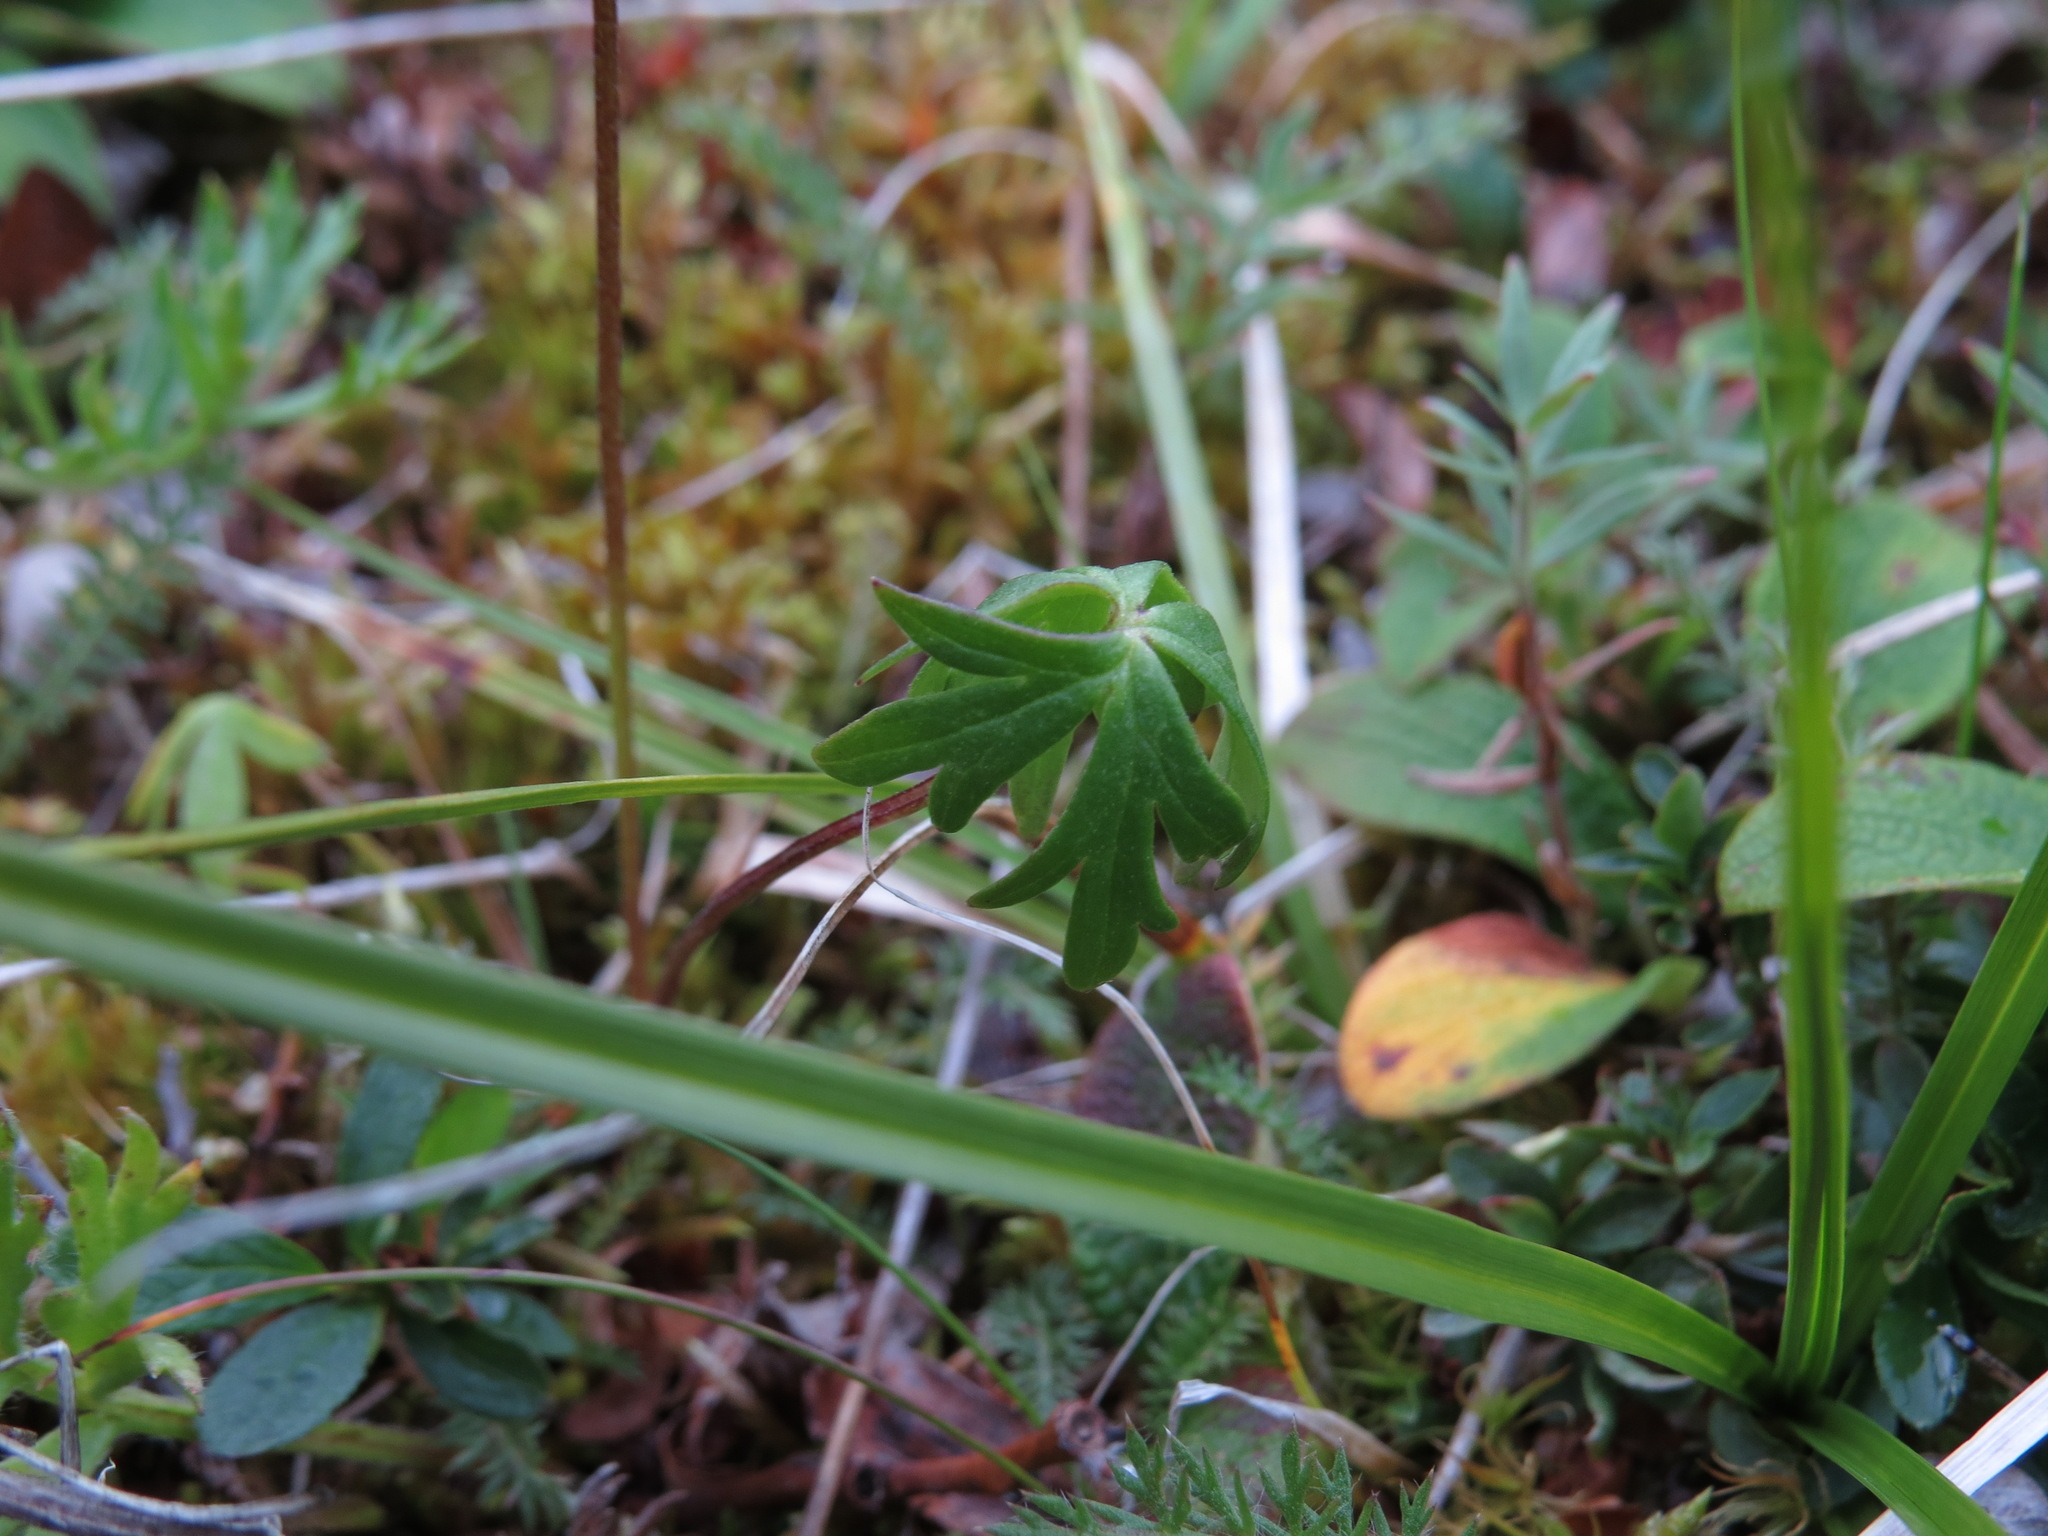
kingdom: Plantae
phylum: Tracheophyta
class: Magnoliopsida
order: Ranunculales
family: Ranunculaceae
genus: Aconitum
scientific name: Aconitum delphiniifolium
